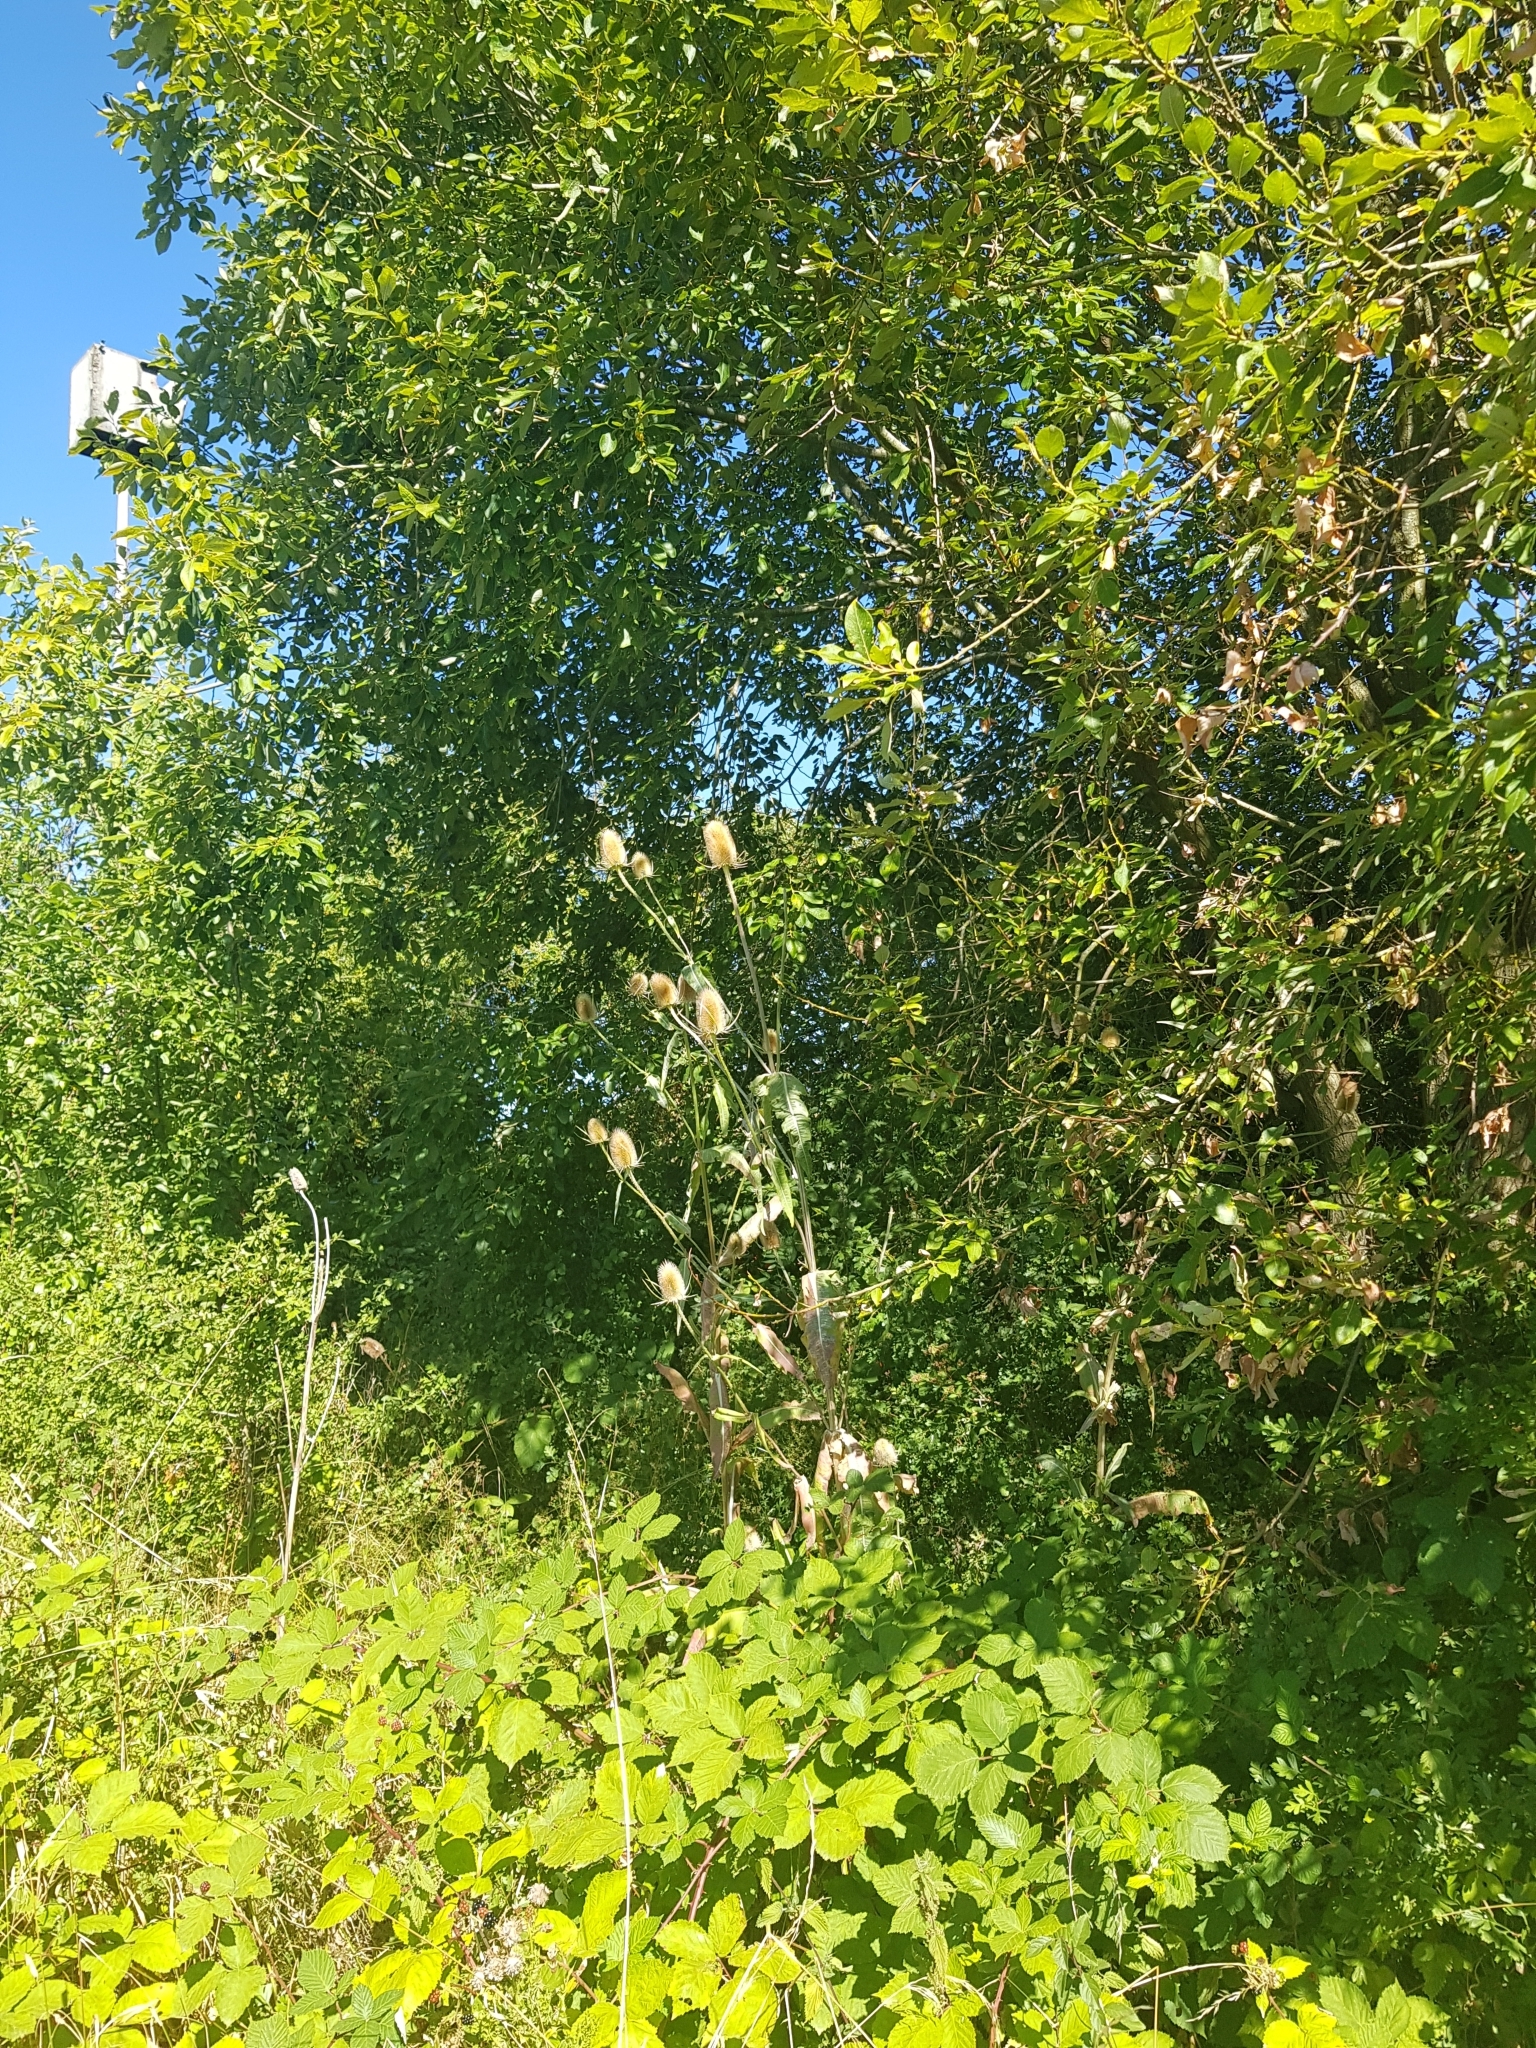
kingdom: Plantae
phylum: Tracheophyta
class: Magnoliopsida
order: Dipsacales
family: Caprifoliaceae
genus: Dipsacus
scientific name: Dipsacus fullonum
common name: Teasel
